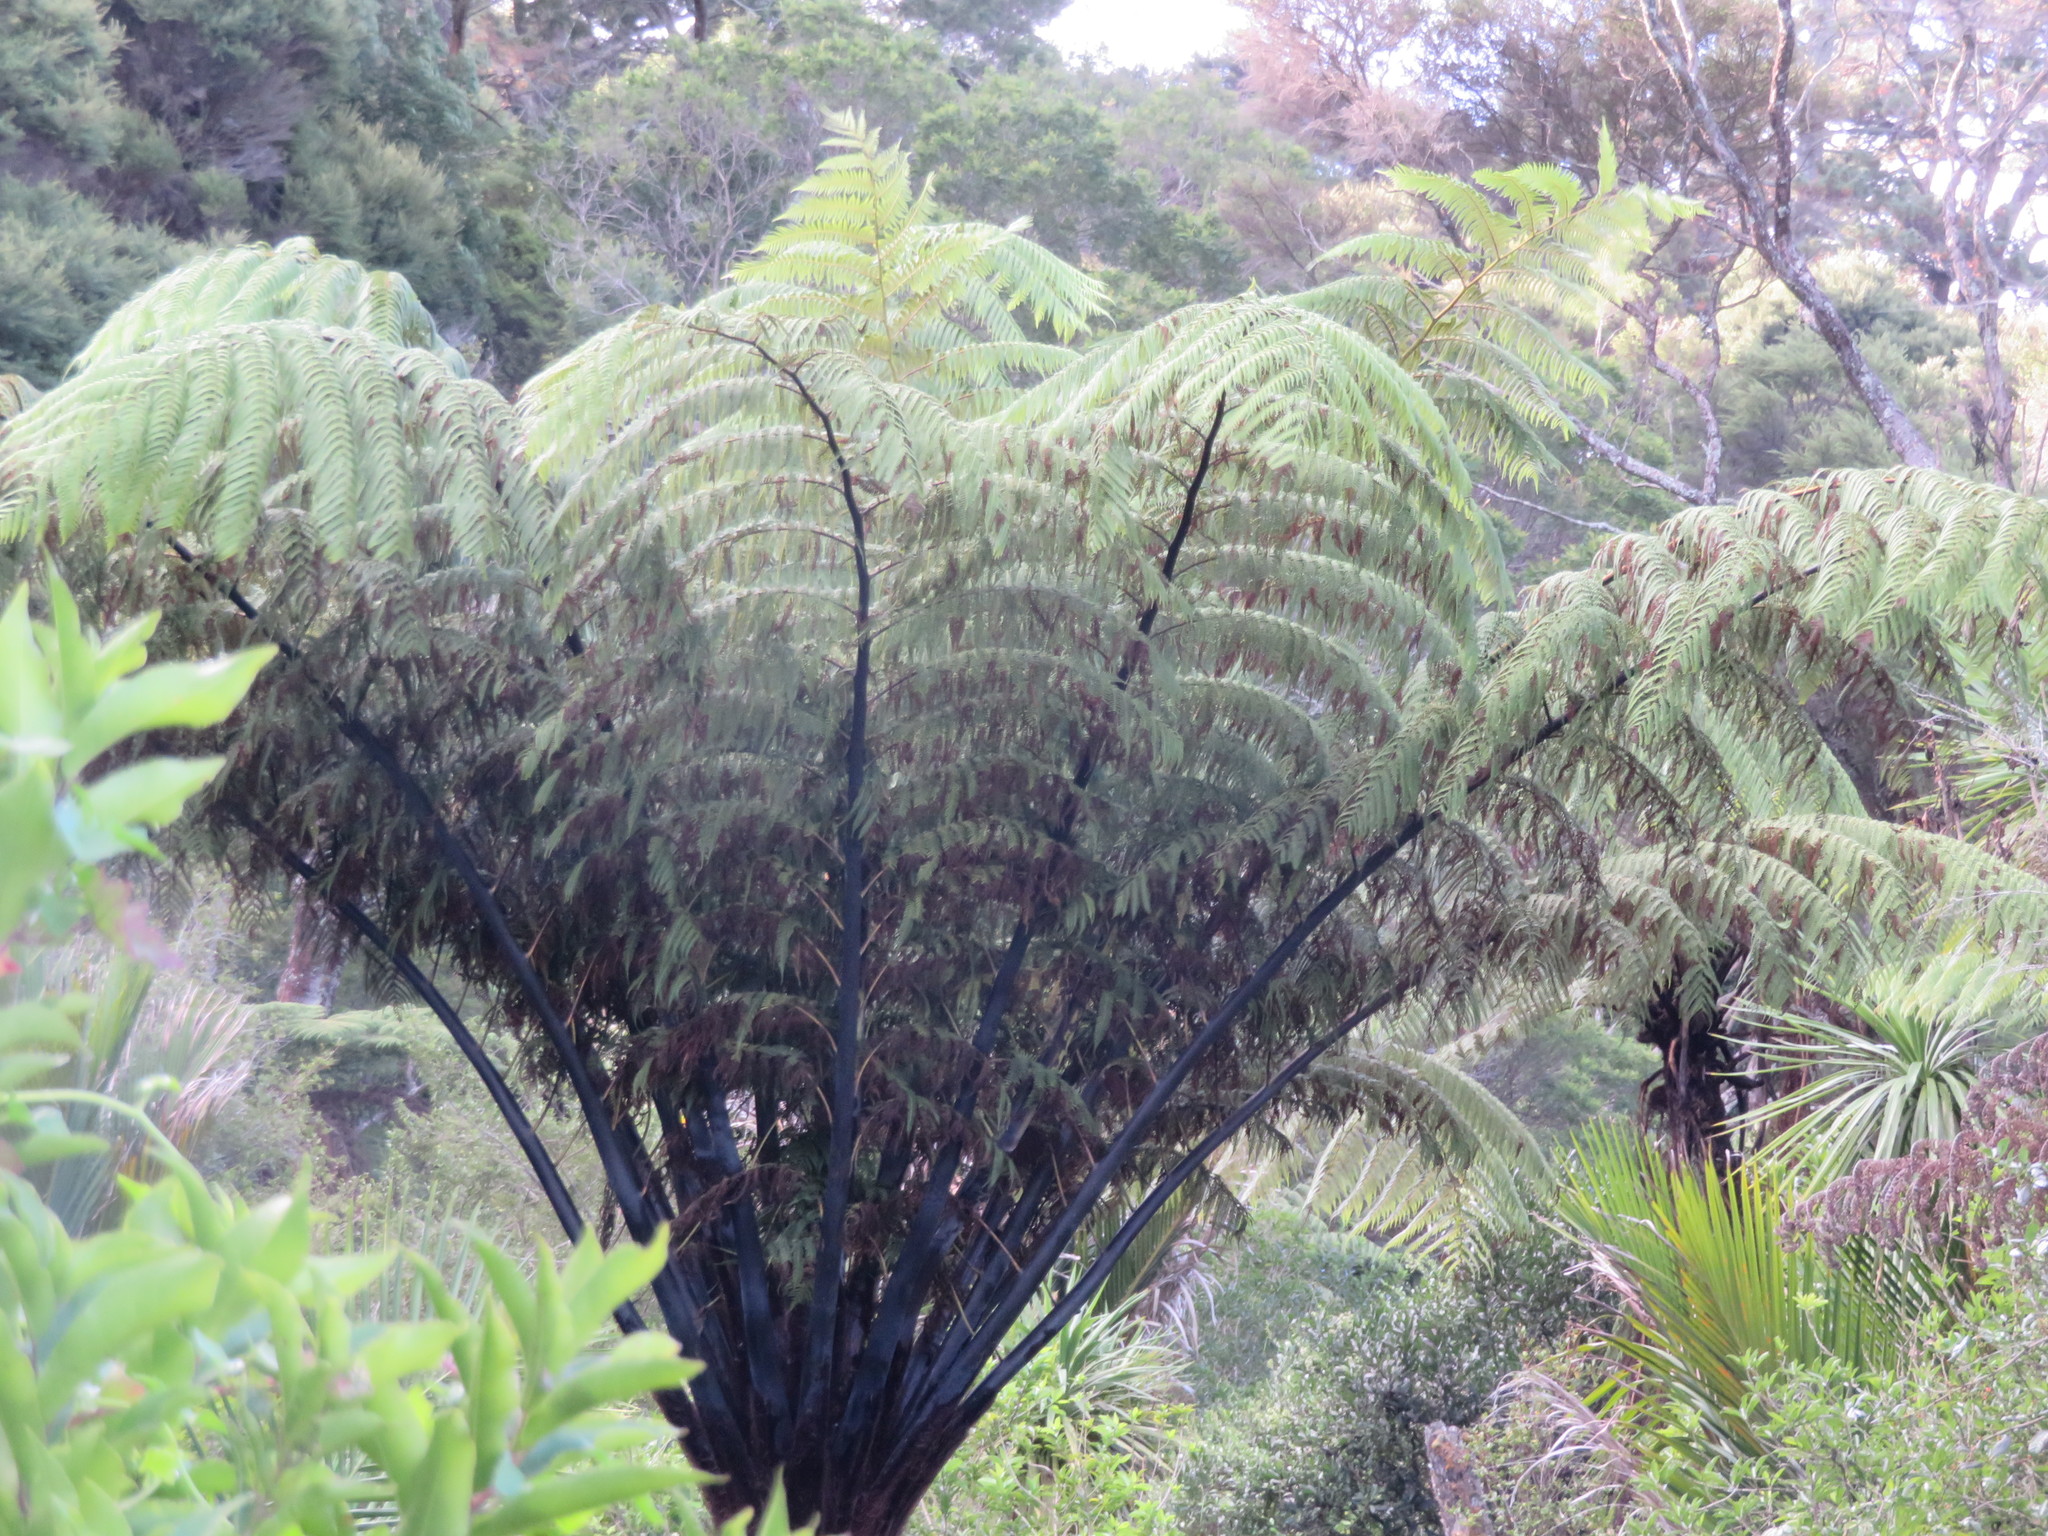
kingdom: Plantae
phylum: Tracheophyta
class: Polypodiopsida
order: Cyatheales
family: Cyatheaceae
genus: Sphaeropteris
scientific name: Sphaeropteris medullaris
